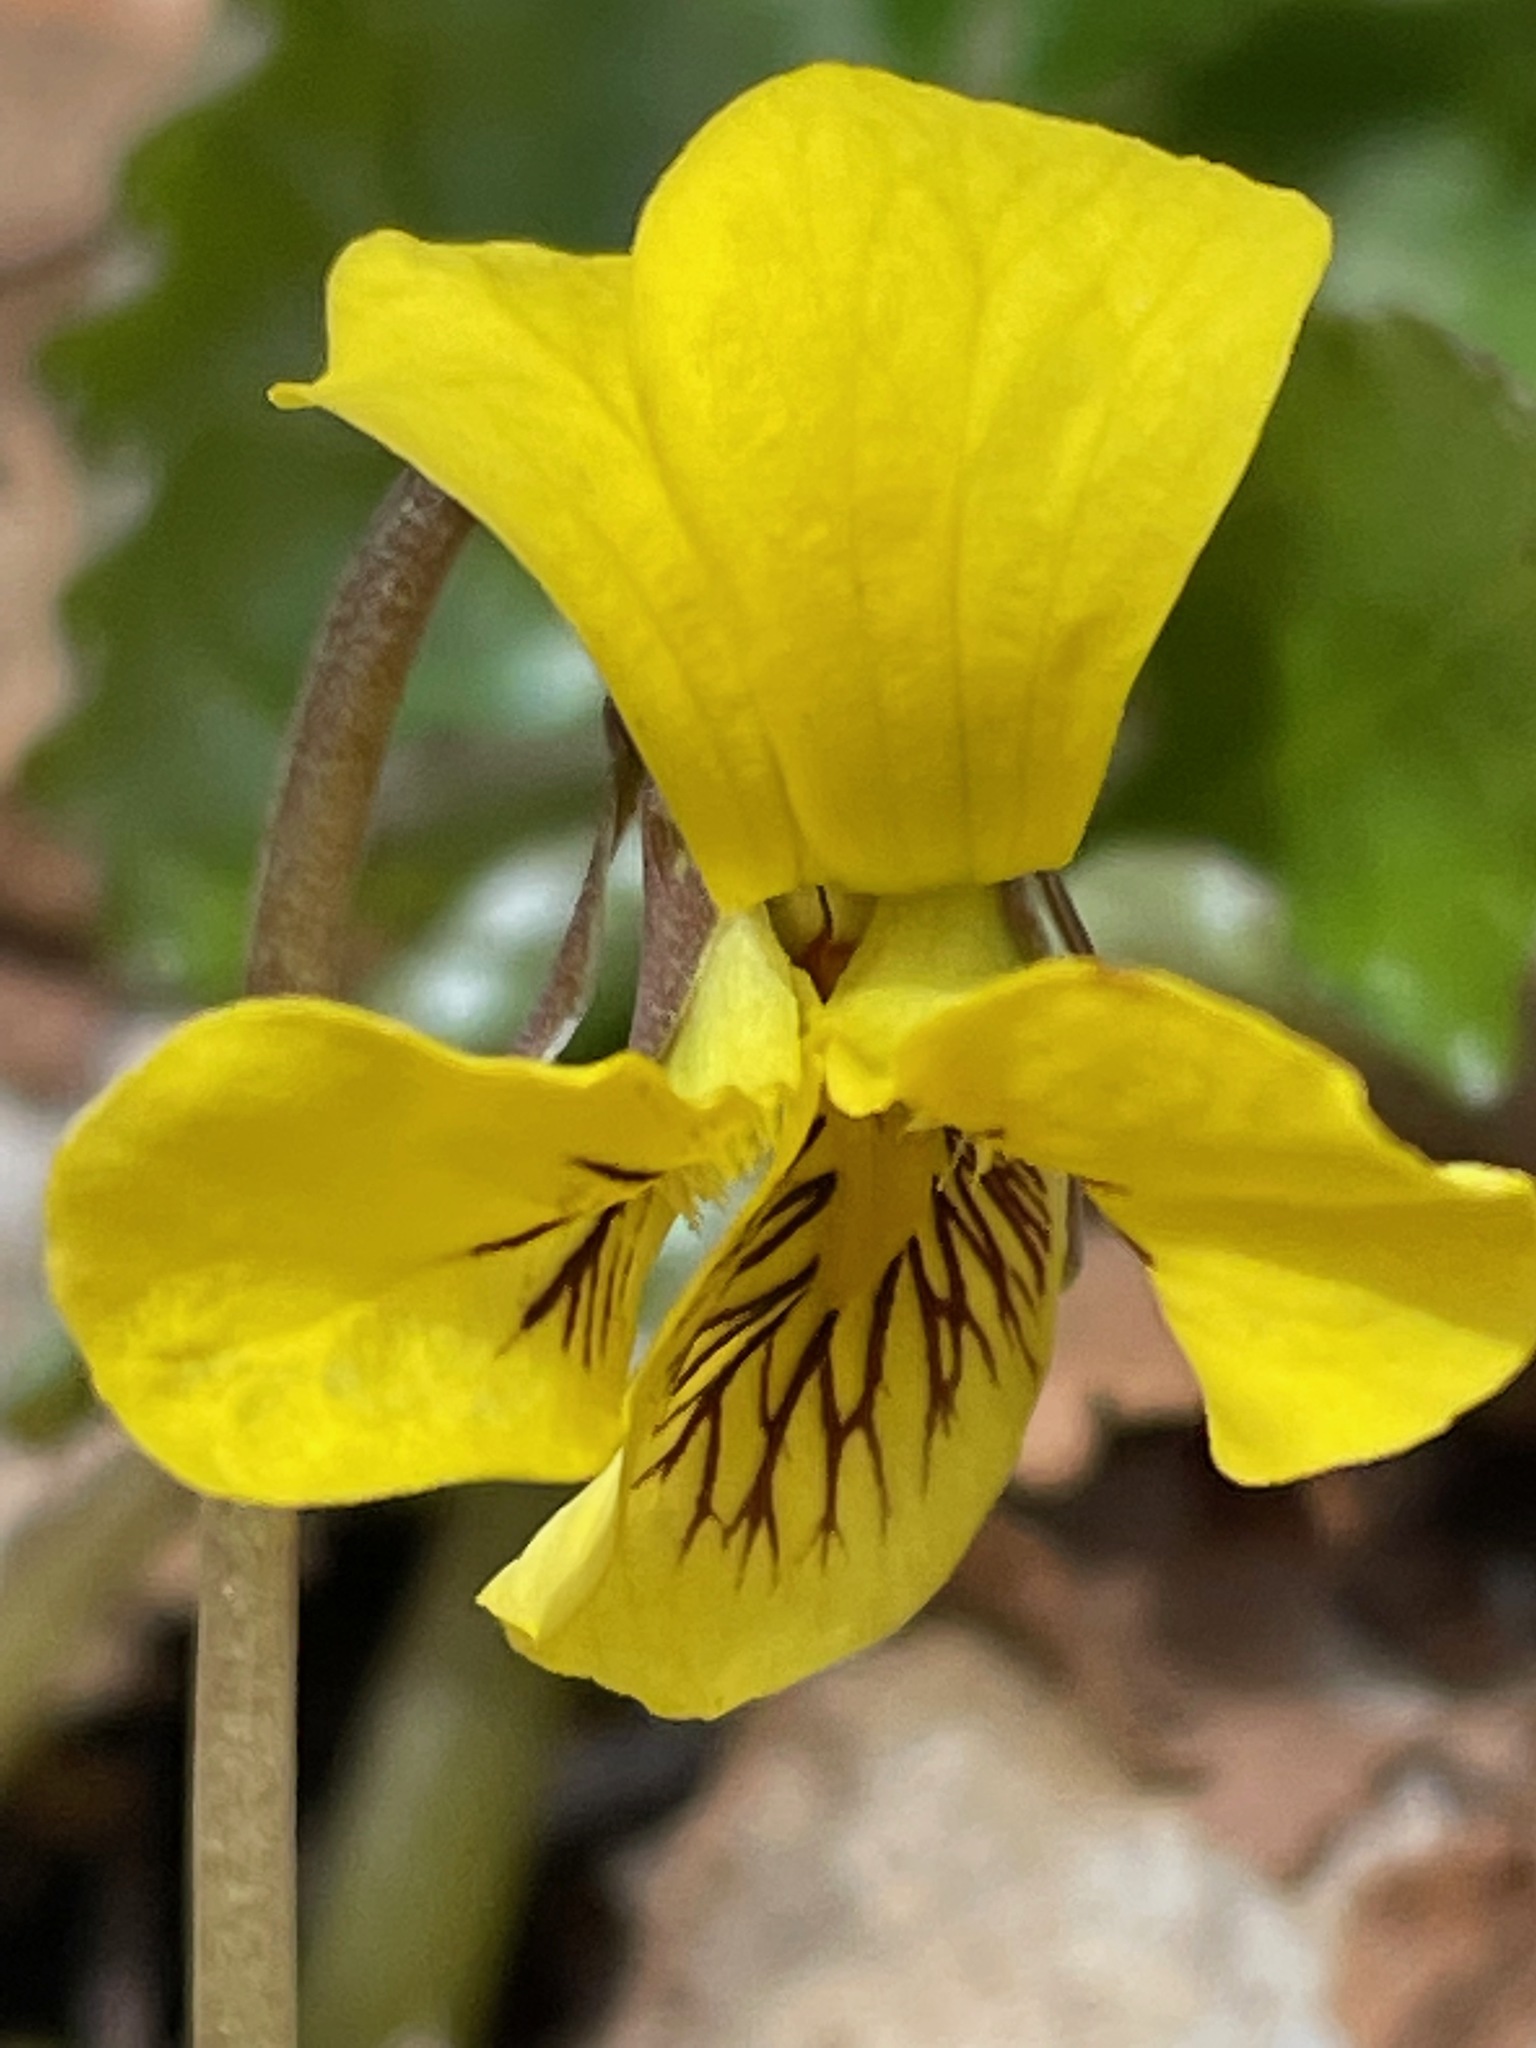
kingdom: Plantae
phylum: Tracheophyta
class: Magnoliopsida
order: Malpighiales
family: Violaceae
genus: Viola
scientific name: Viola rotundifolia
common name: Early yellow violet
